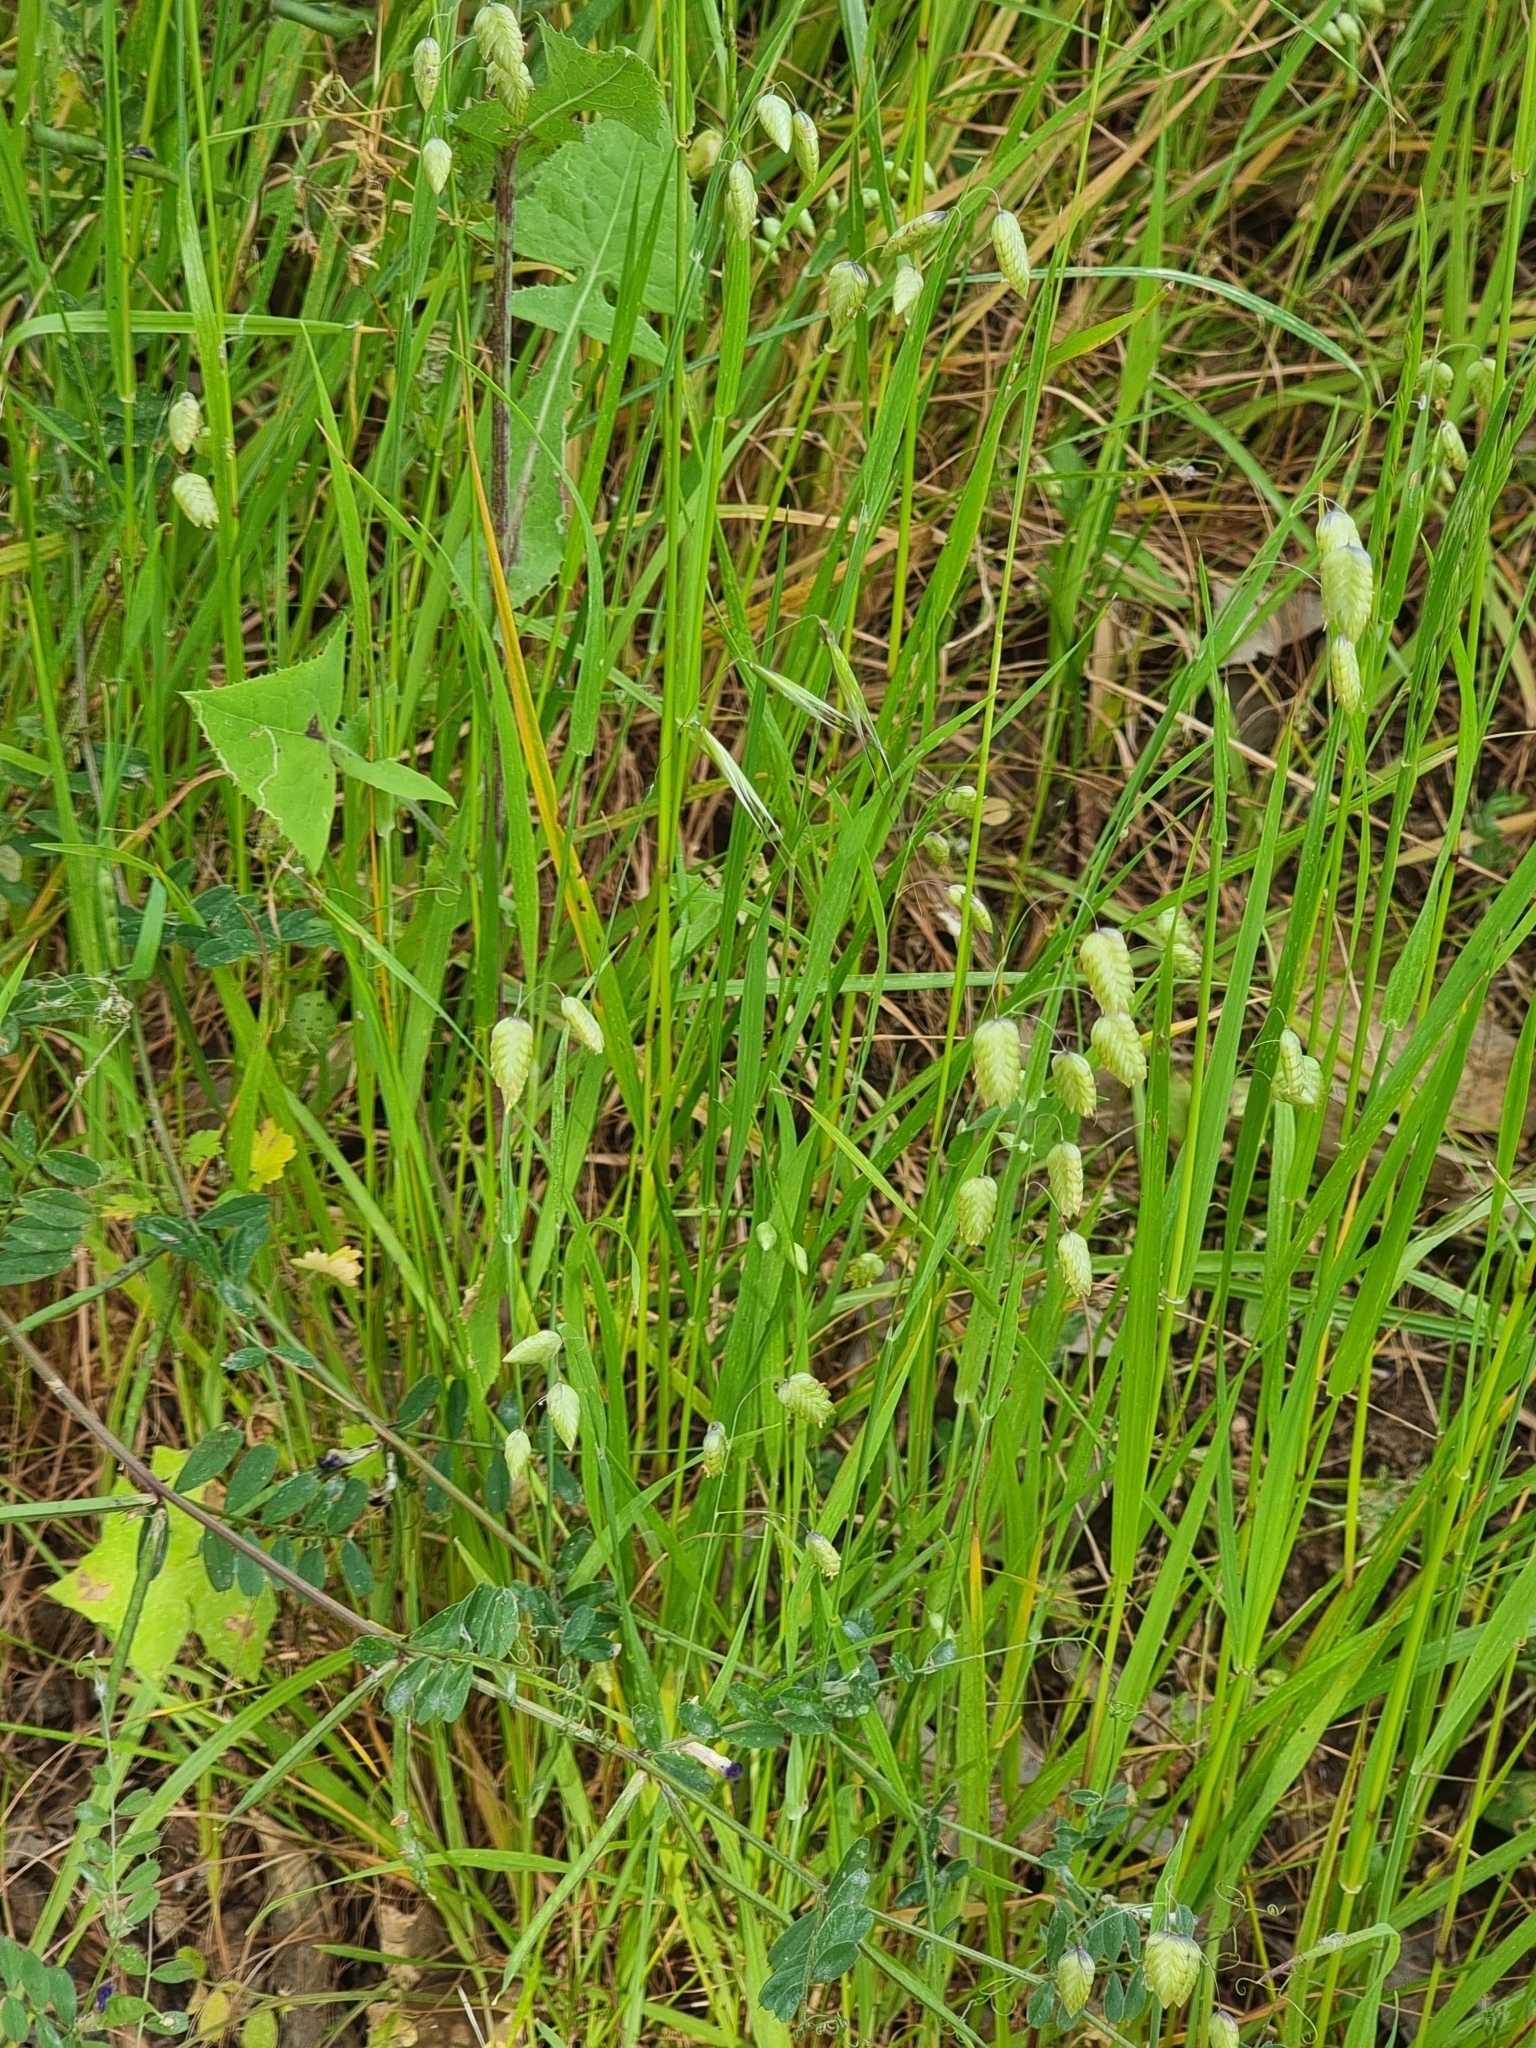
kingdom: Plantae
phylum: Tracheophyta
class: Liliopsida
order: Poales
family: Poaceae
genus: Briza
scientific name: Briza maxima
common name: Big quakinggrass
